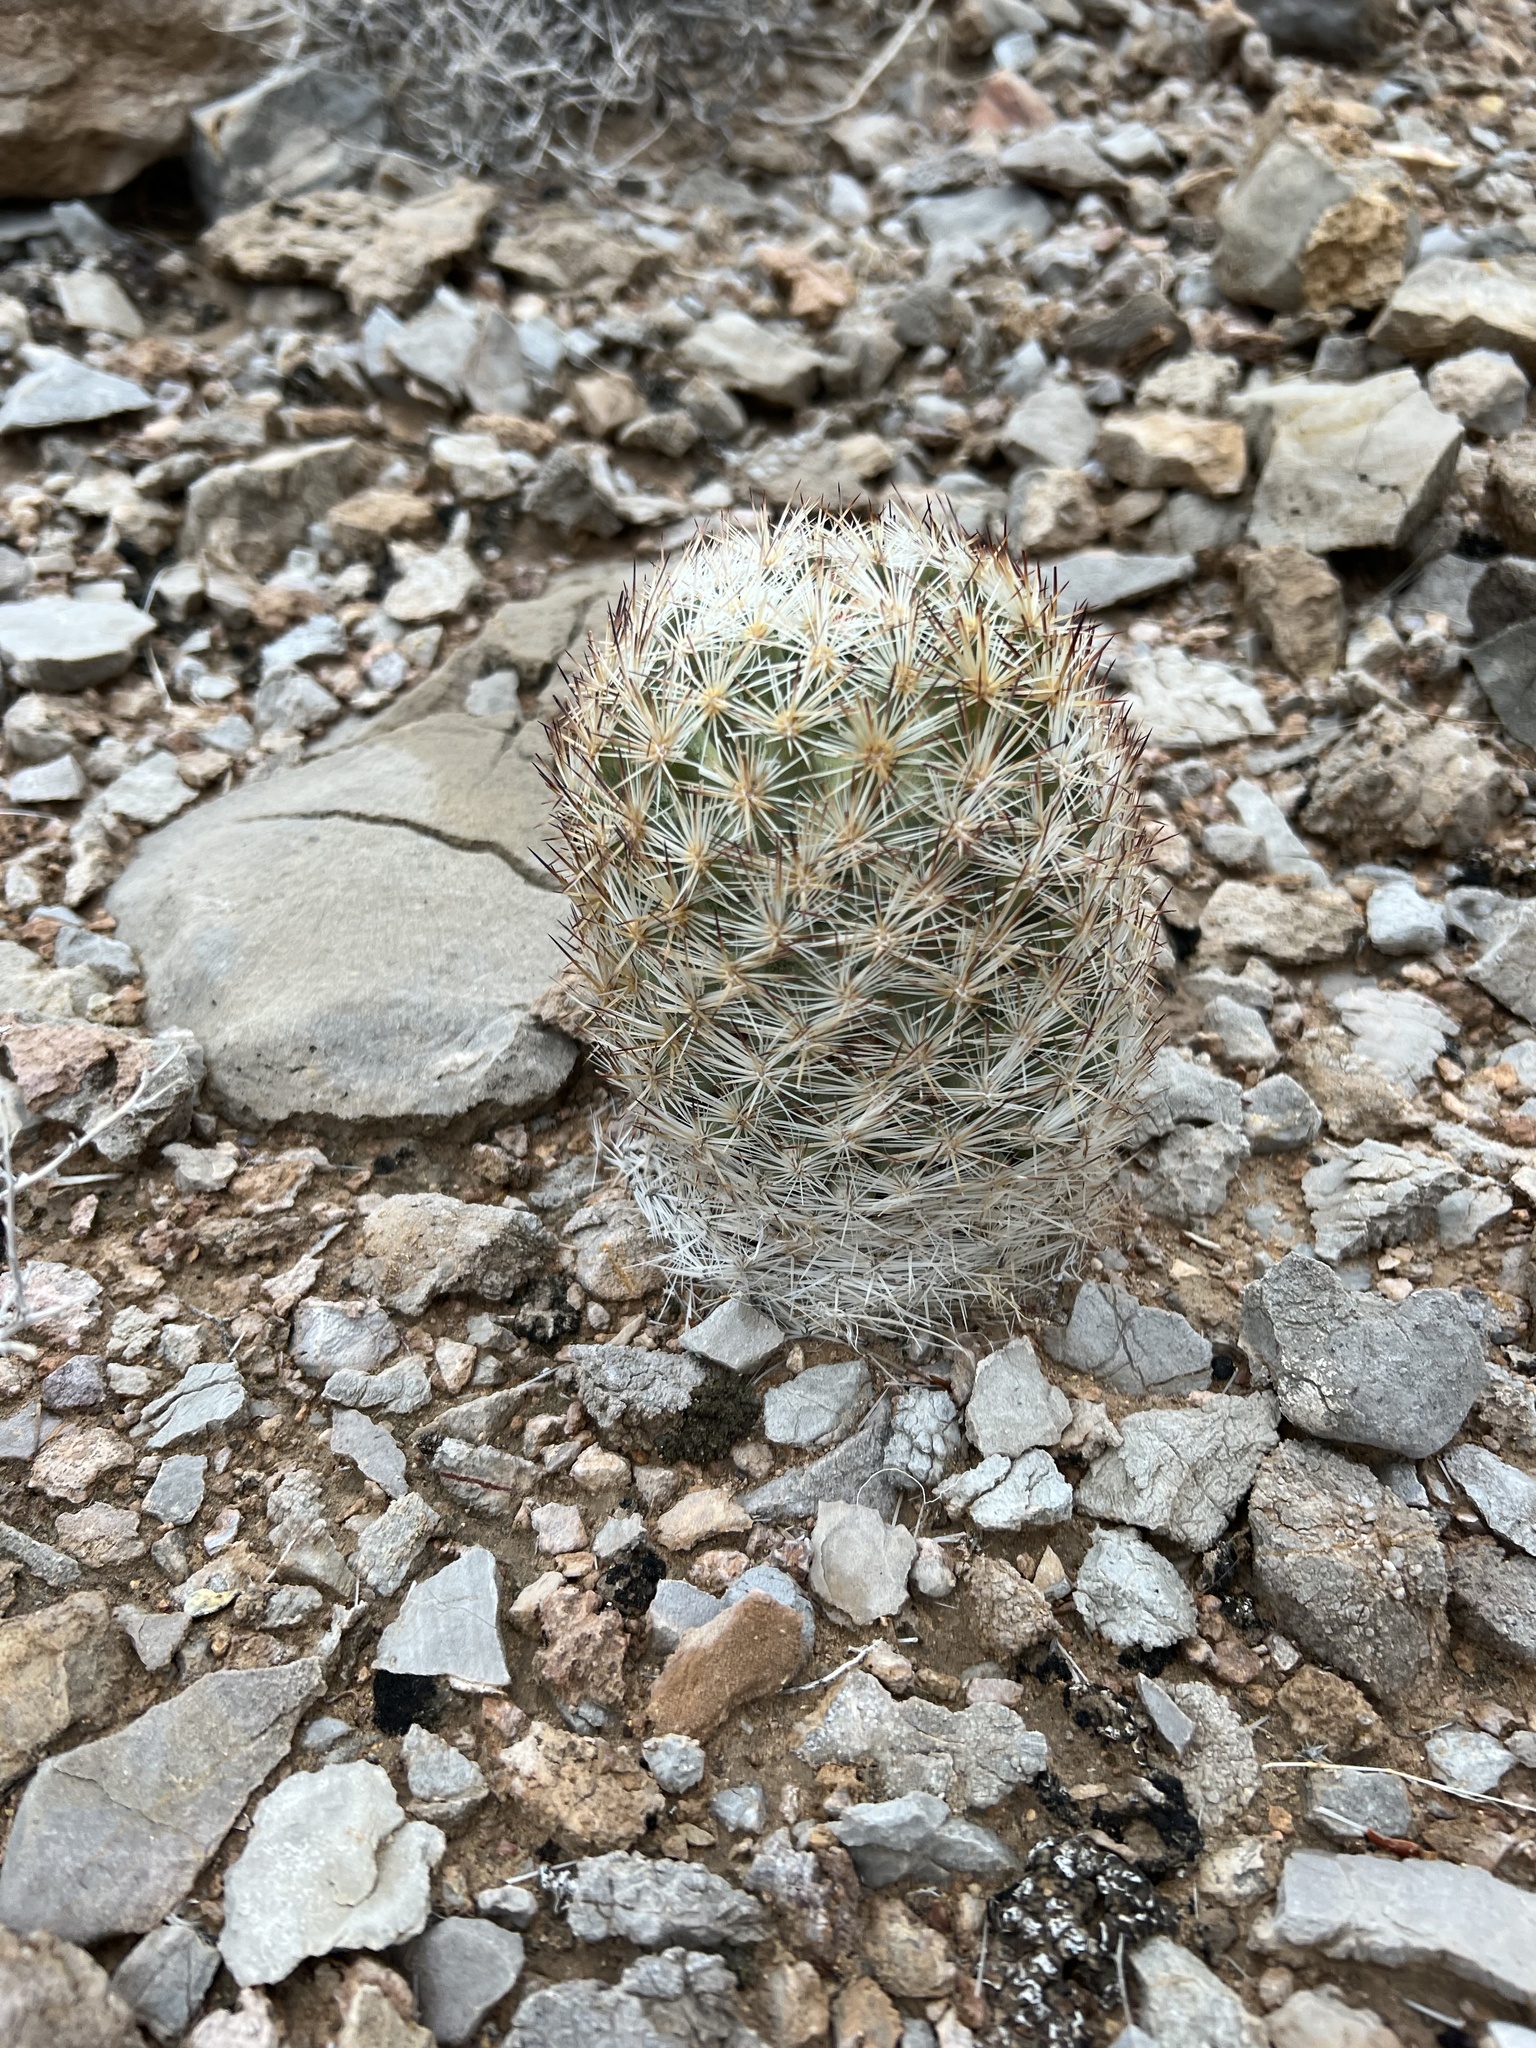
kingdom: Plantae
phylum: Tracheophyta
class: Magnoliopsida
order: Caryophyllales
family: Cactaceae
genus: Pelecyphora
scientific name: Pelecyphora dasyacantha
